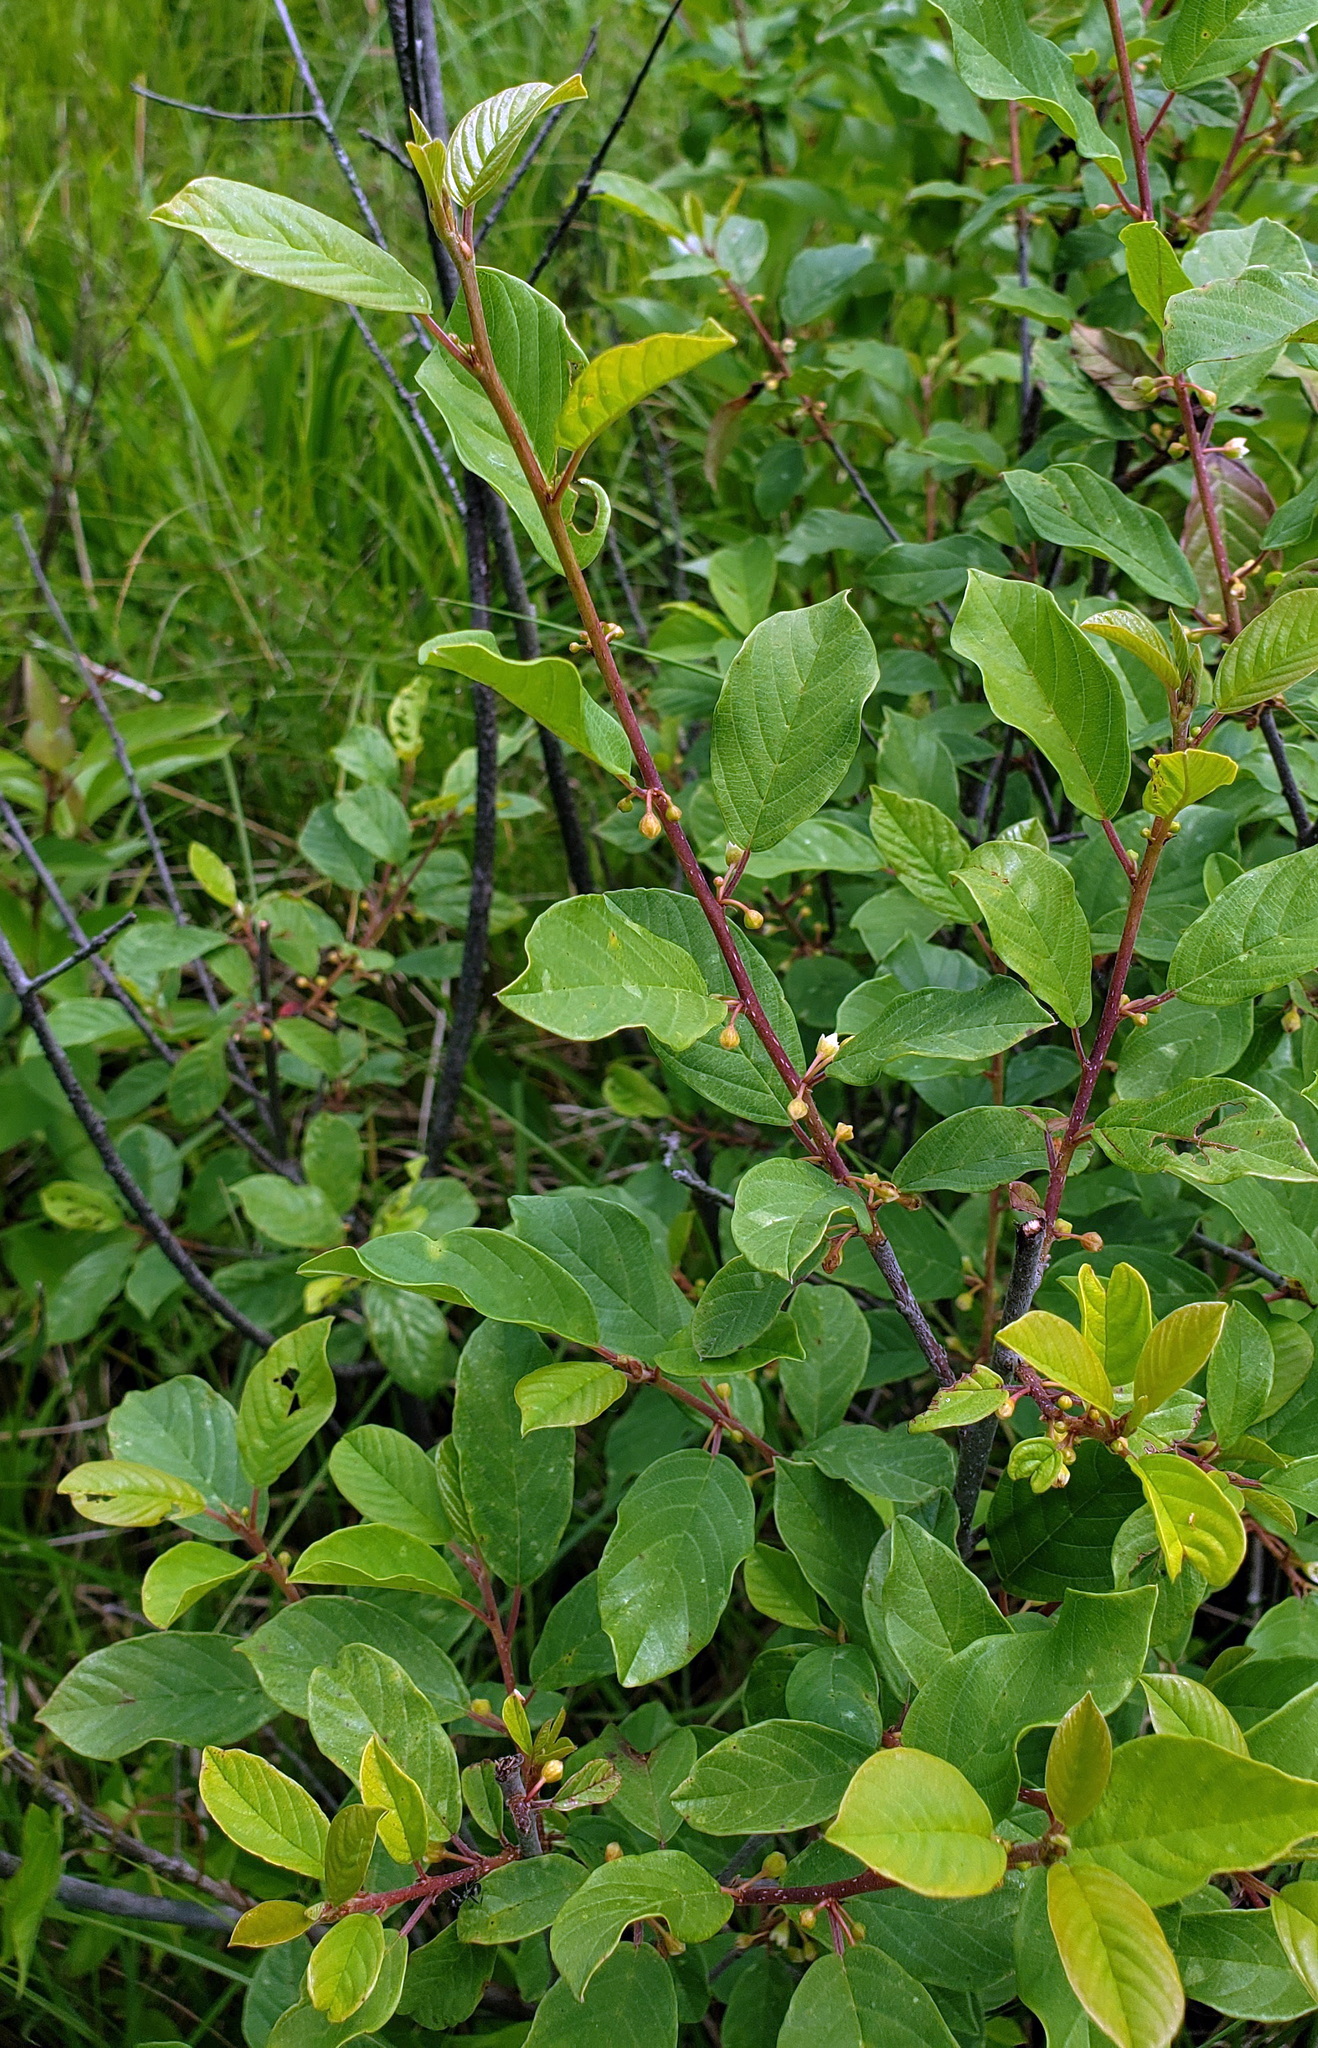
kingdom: Plantae
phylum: Tracheophyta
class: Magnoliopsida
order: Rosales
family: Rhamnaceae
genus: Frangula
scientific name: Frangula alnus
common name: Alder buckthorn
